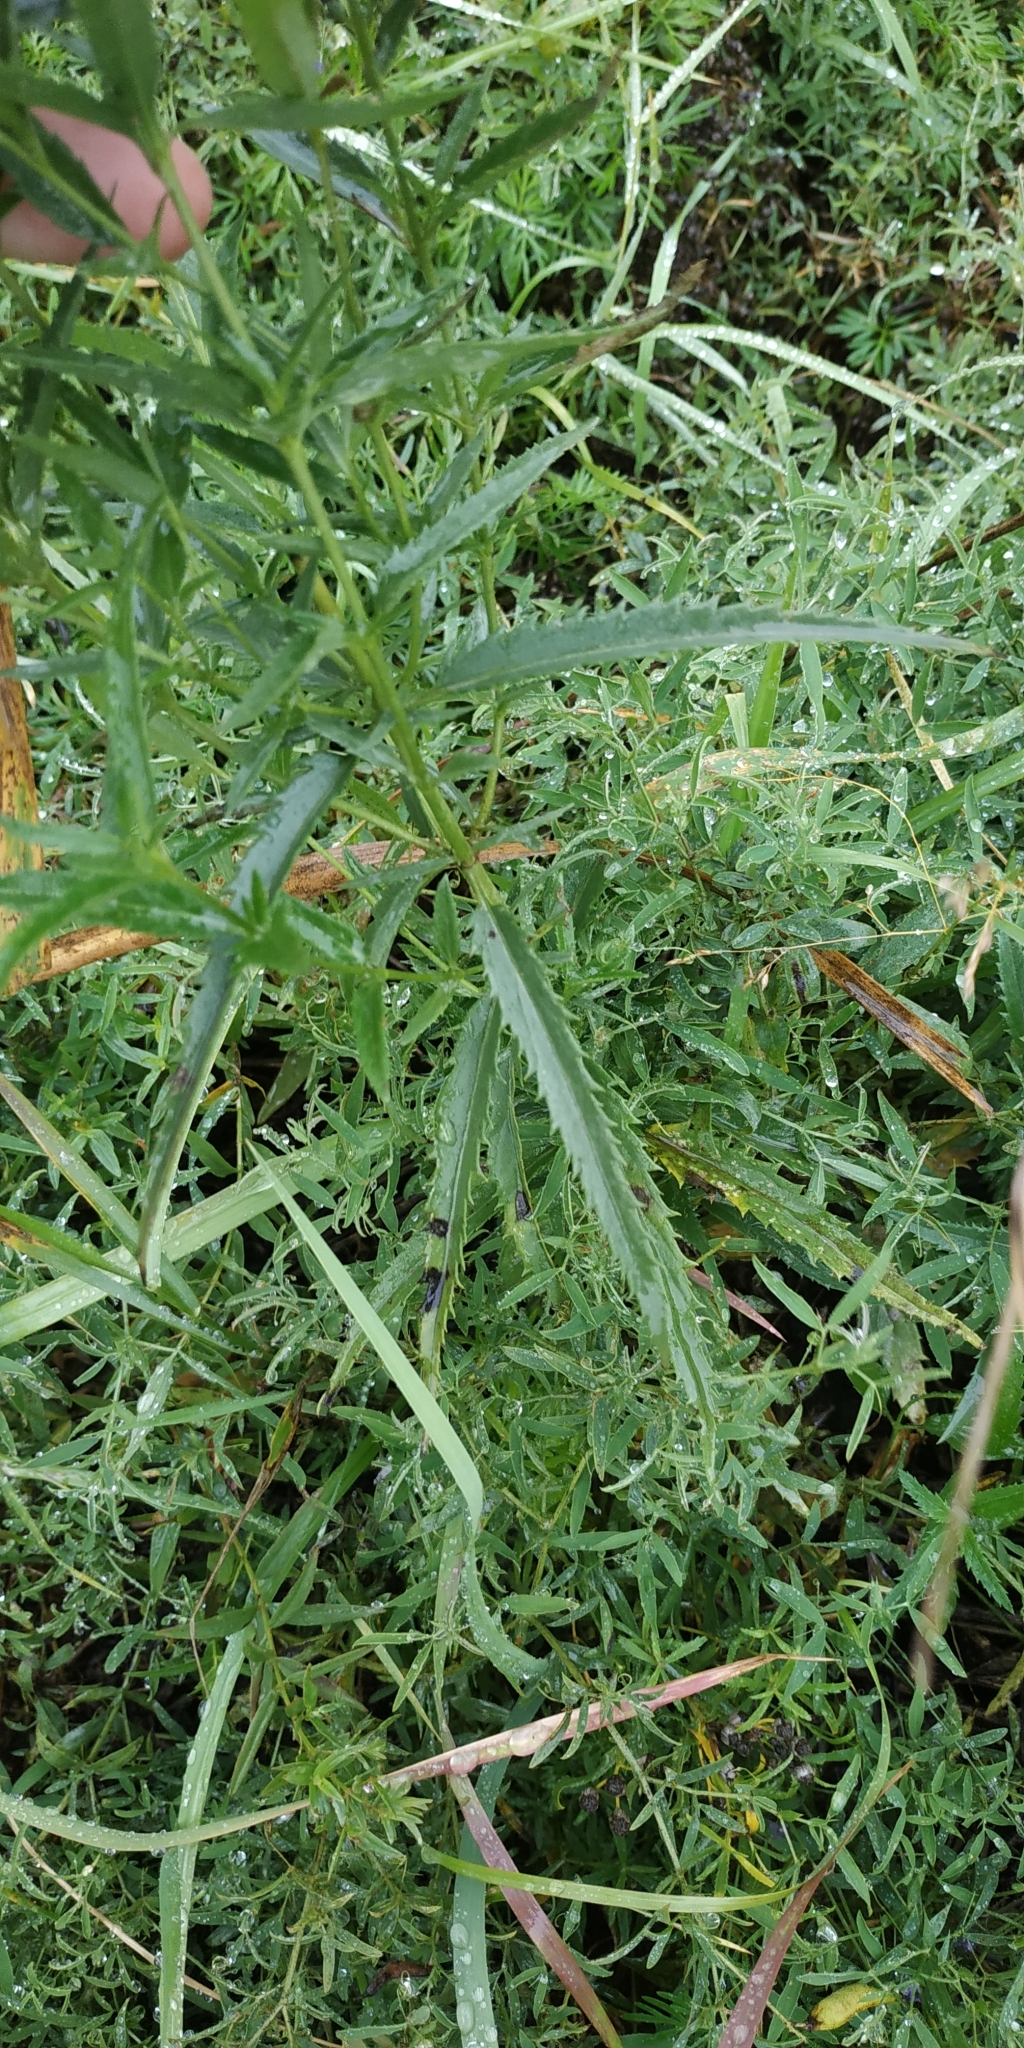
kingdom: Plantae
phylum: Tracheophyta
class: Magnoliopsida
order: Lamiales
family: Plantaginaceae
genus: Veronica
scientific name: Veronica longifolia
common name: Garden speedwell
